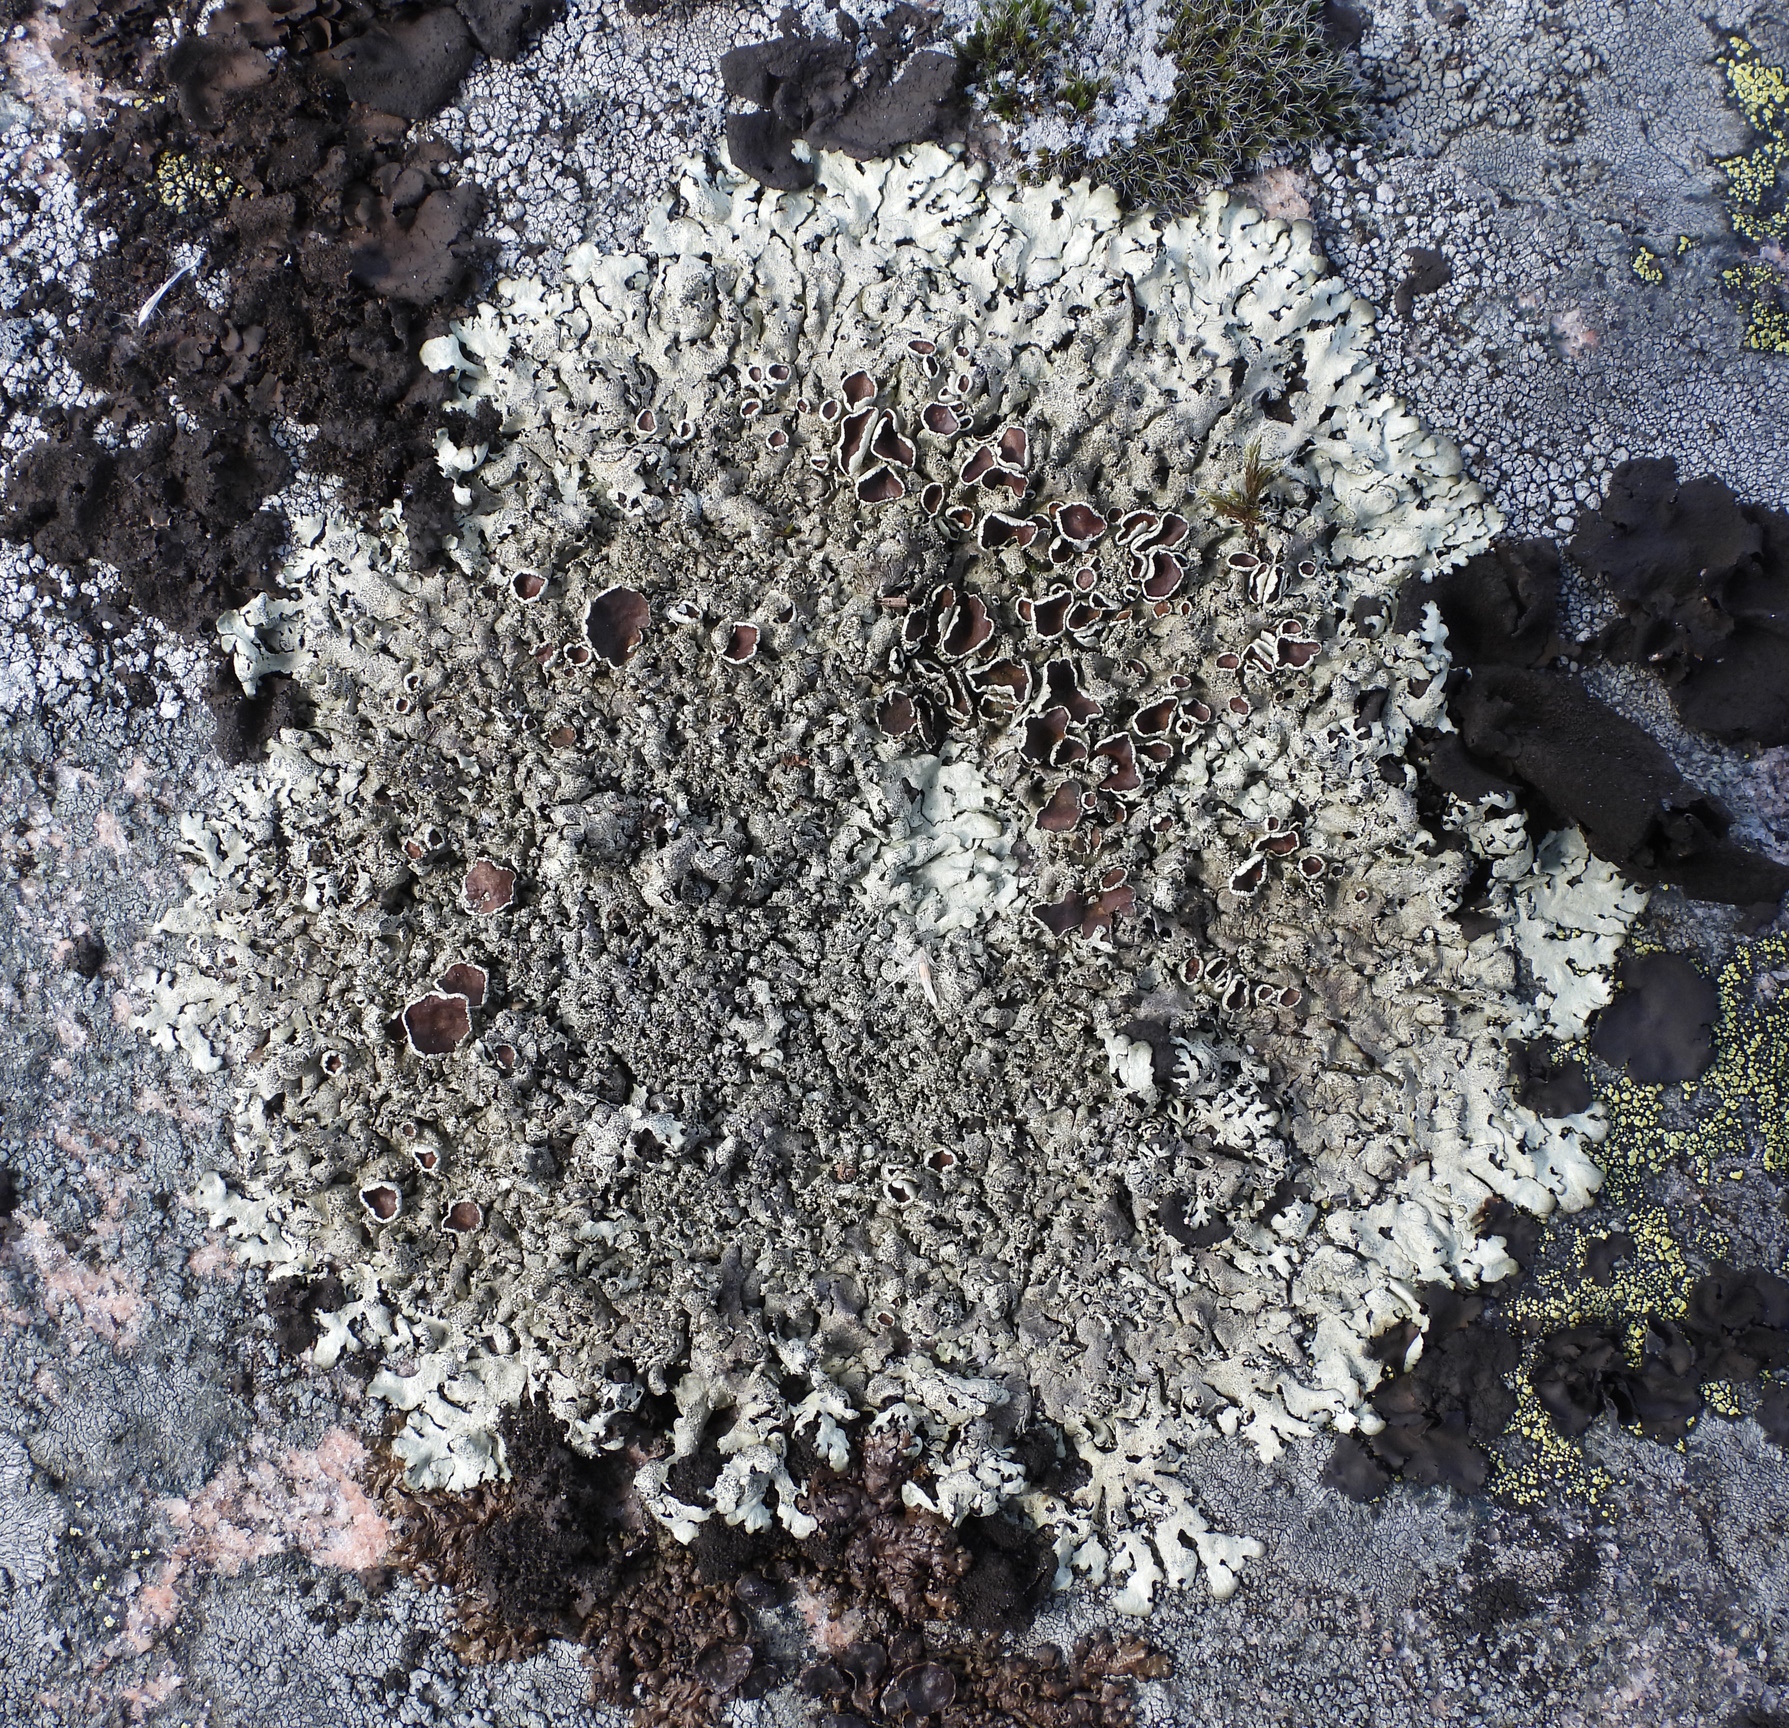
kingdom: Fungi
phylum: Ascomycota
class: Lecanoromycetes
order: Lecanorales
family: Parmeliaceae
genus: Xanthoparmelia
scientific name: Xanthoparmelia conspersa
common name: Peppered rock shield
